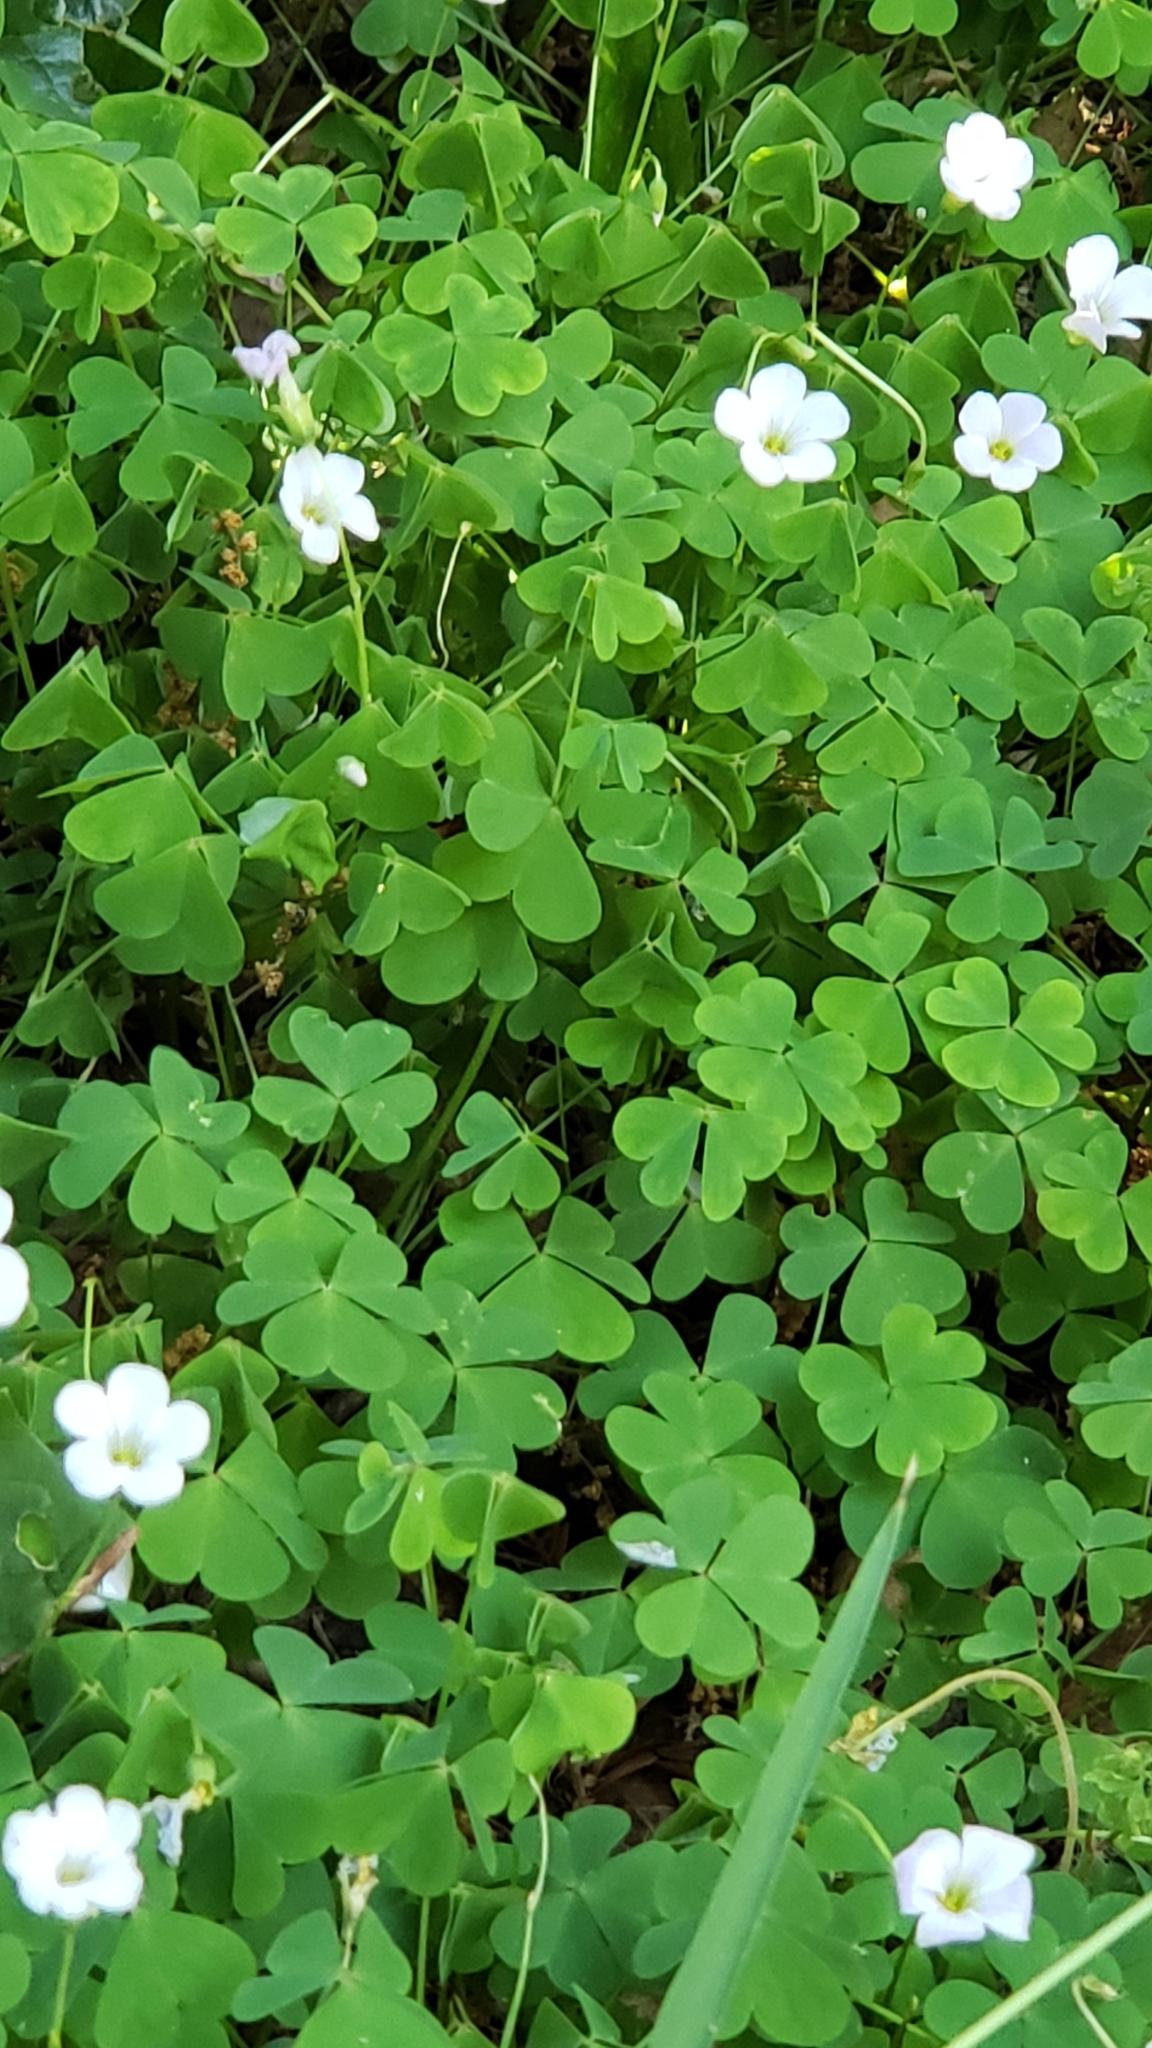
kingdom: Plantae
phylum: Tracheophyta
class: Magnoliopsida
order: Oxalidales
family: Oxalidaceae
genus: Oxalis
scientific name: Oxalis incarnata
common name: Pale pink-sorrel
